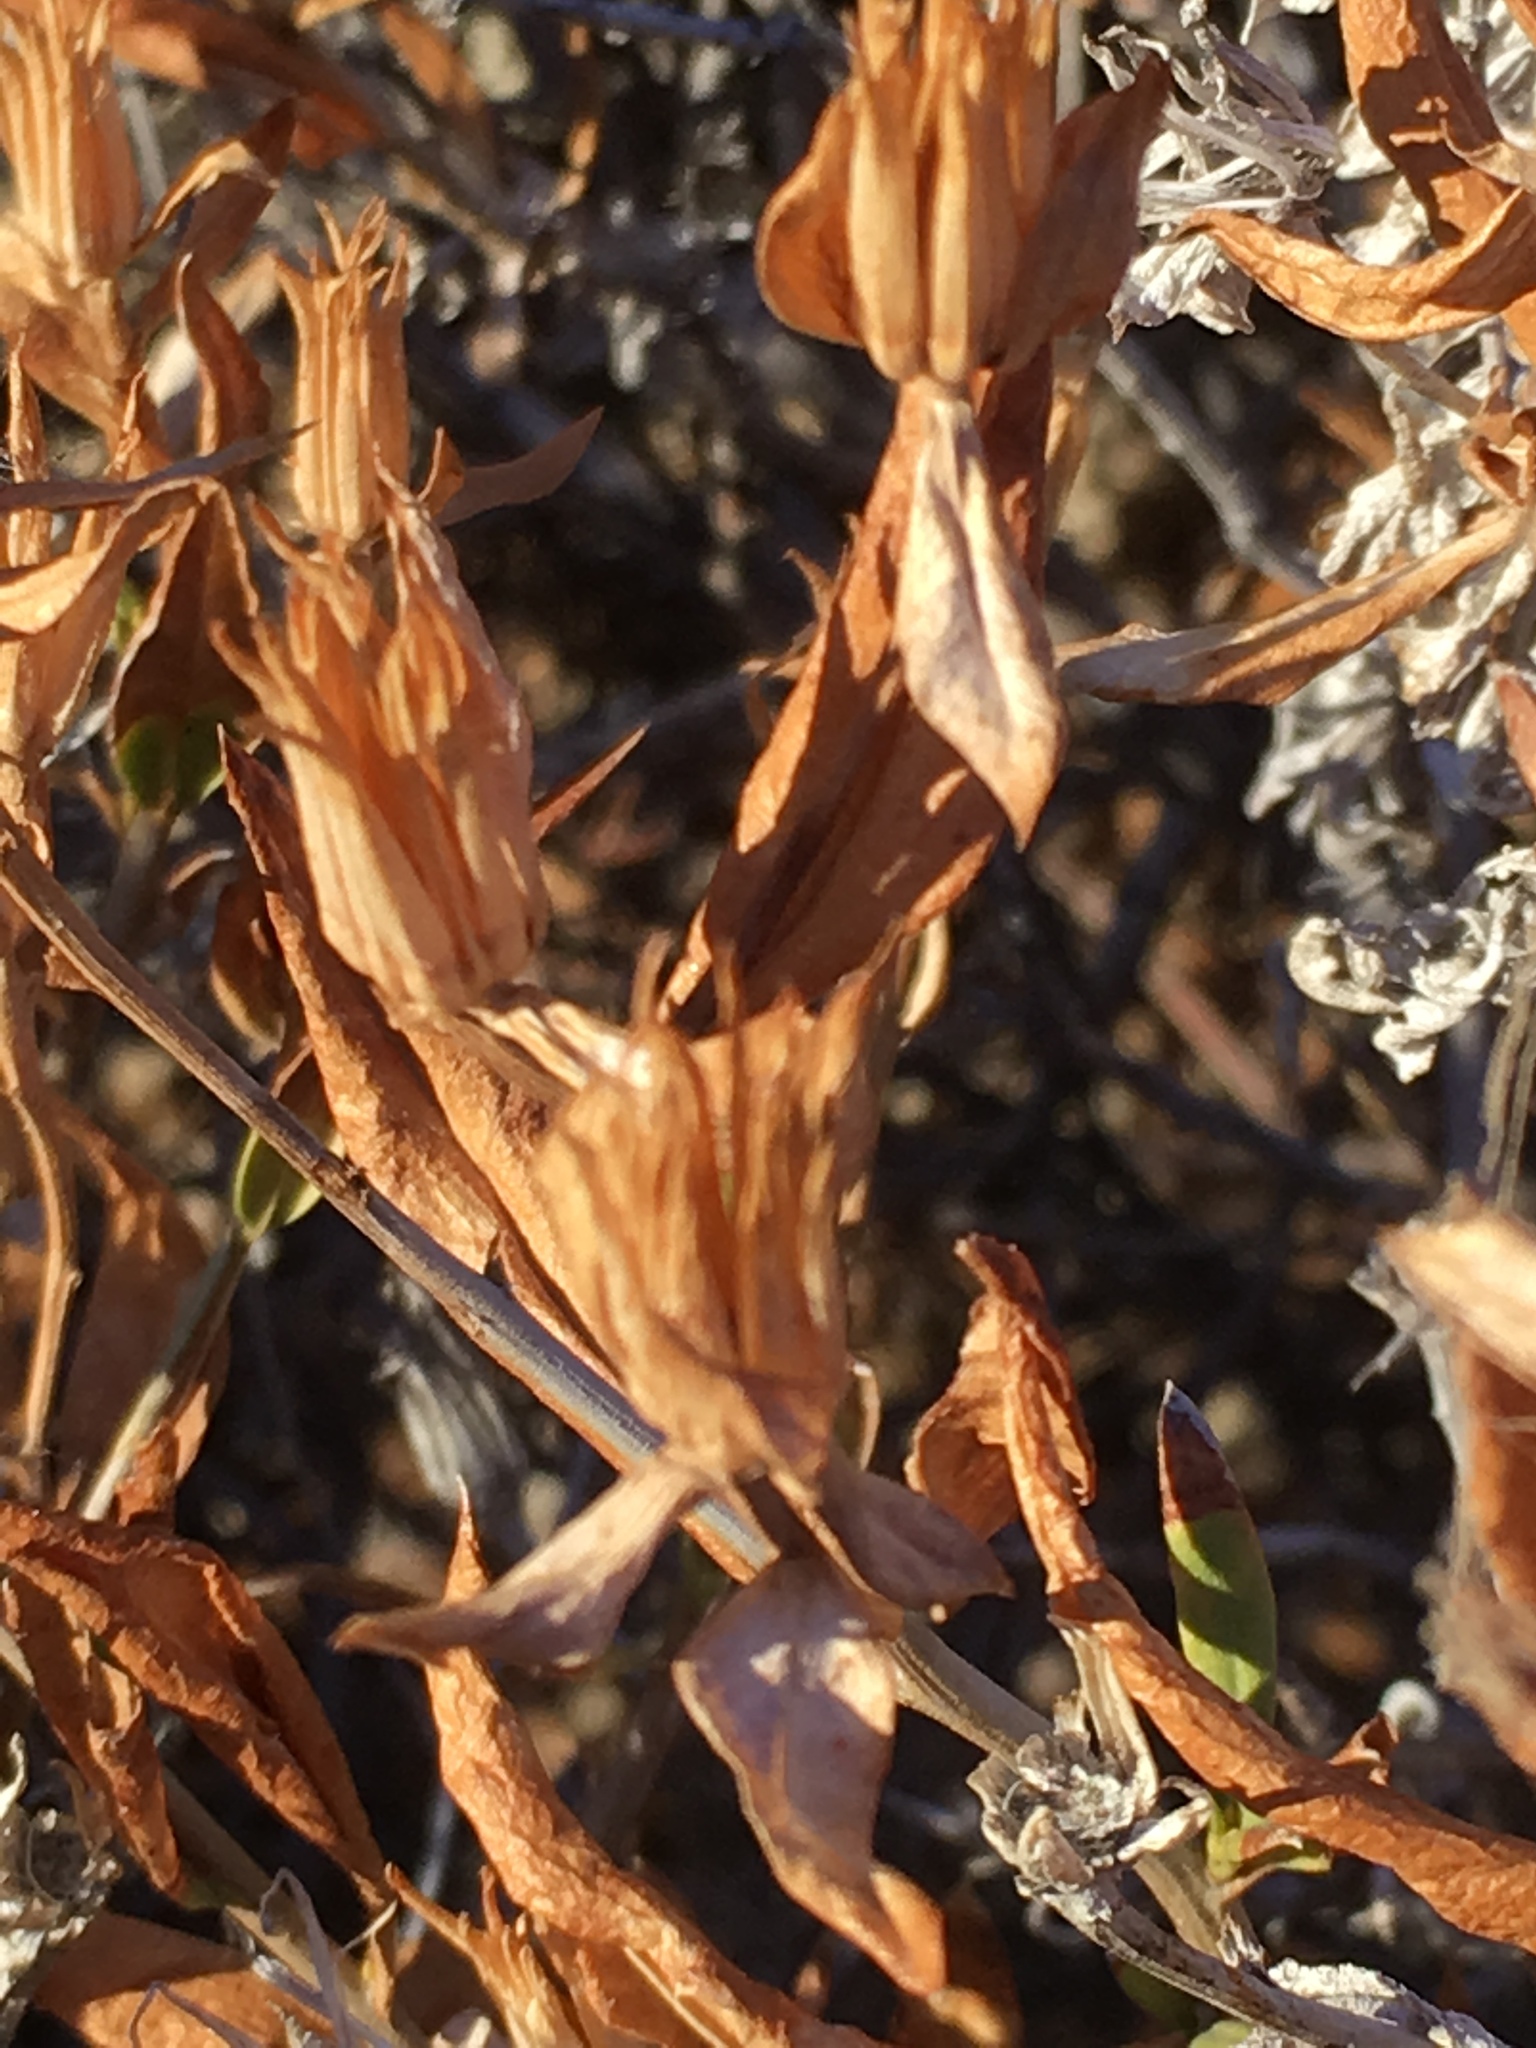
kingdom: Plantae
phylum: Tracheophyta
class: Magnoliopsida
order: Asterales
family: Asteraceae
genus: Trixis
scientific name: Trixis californica
